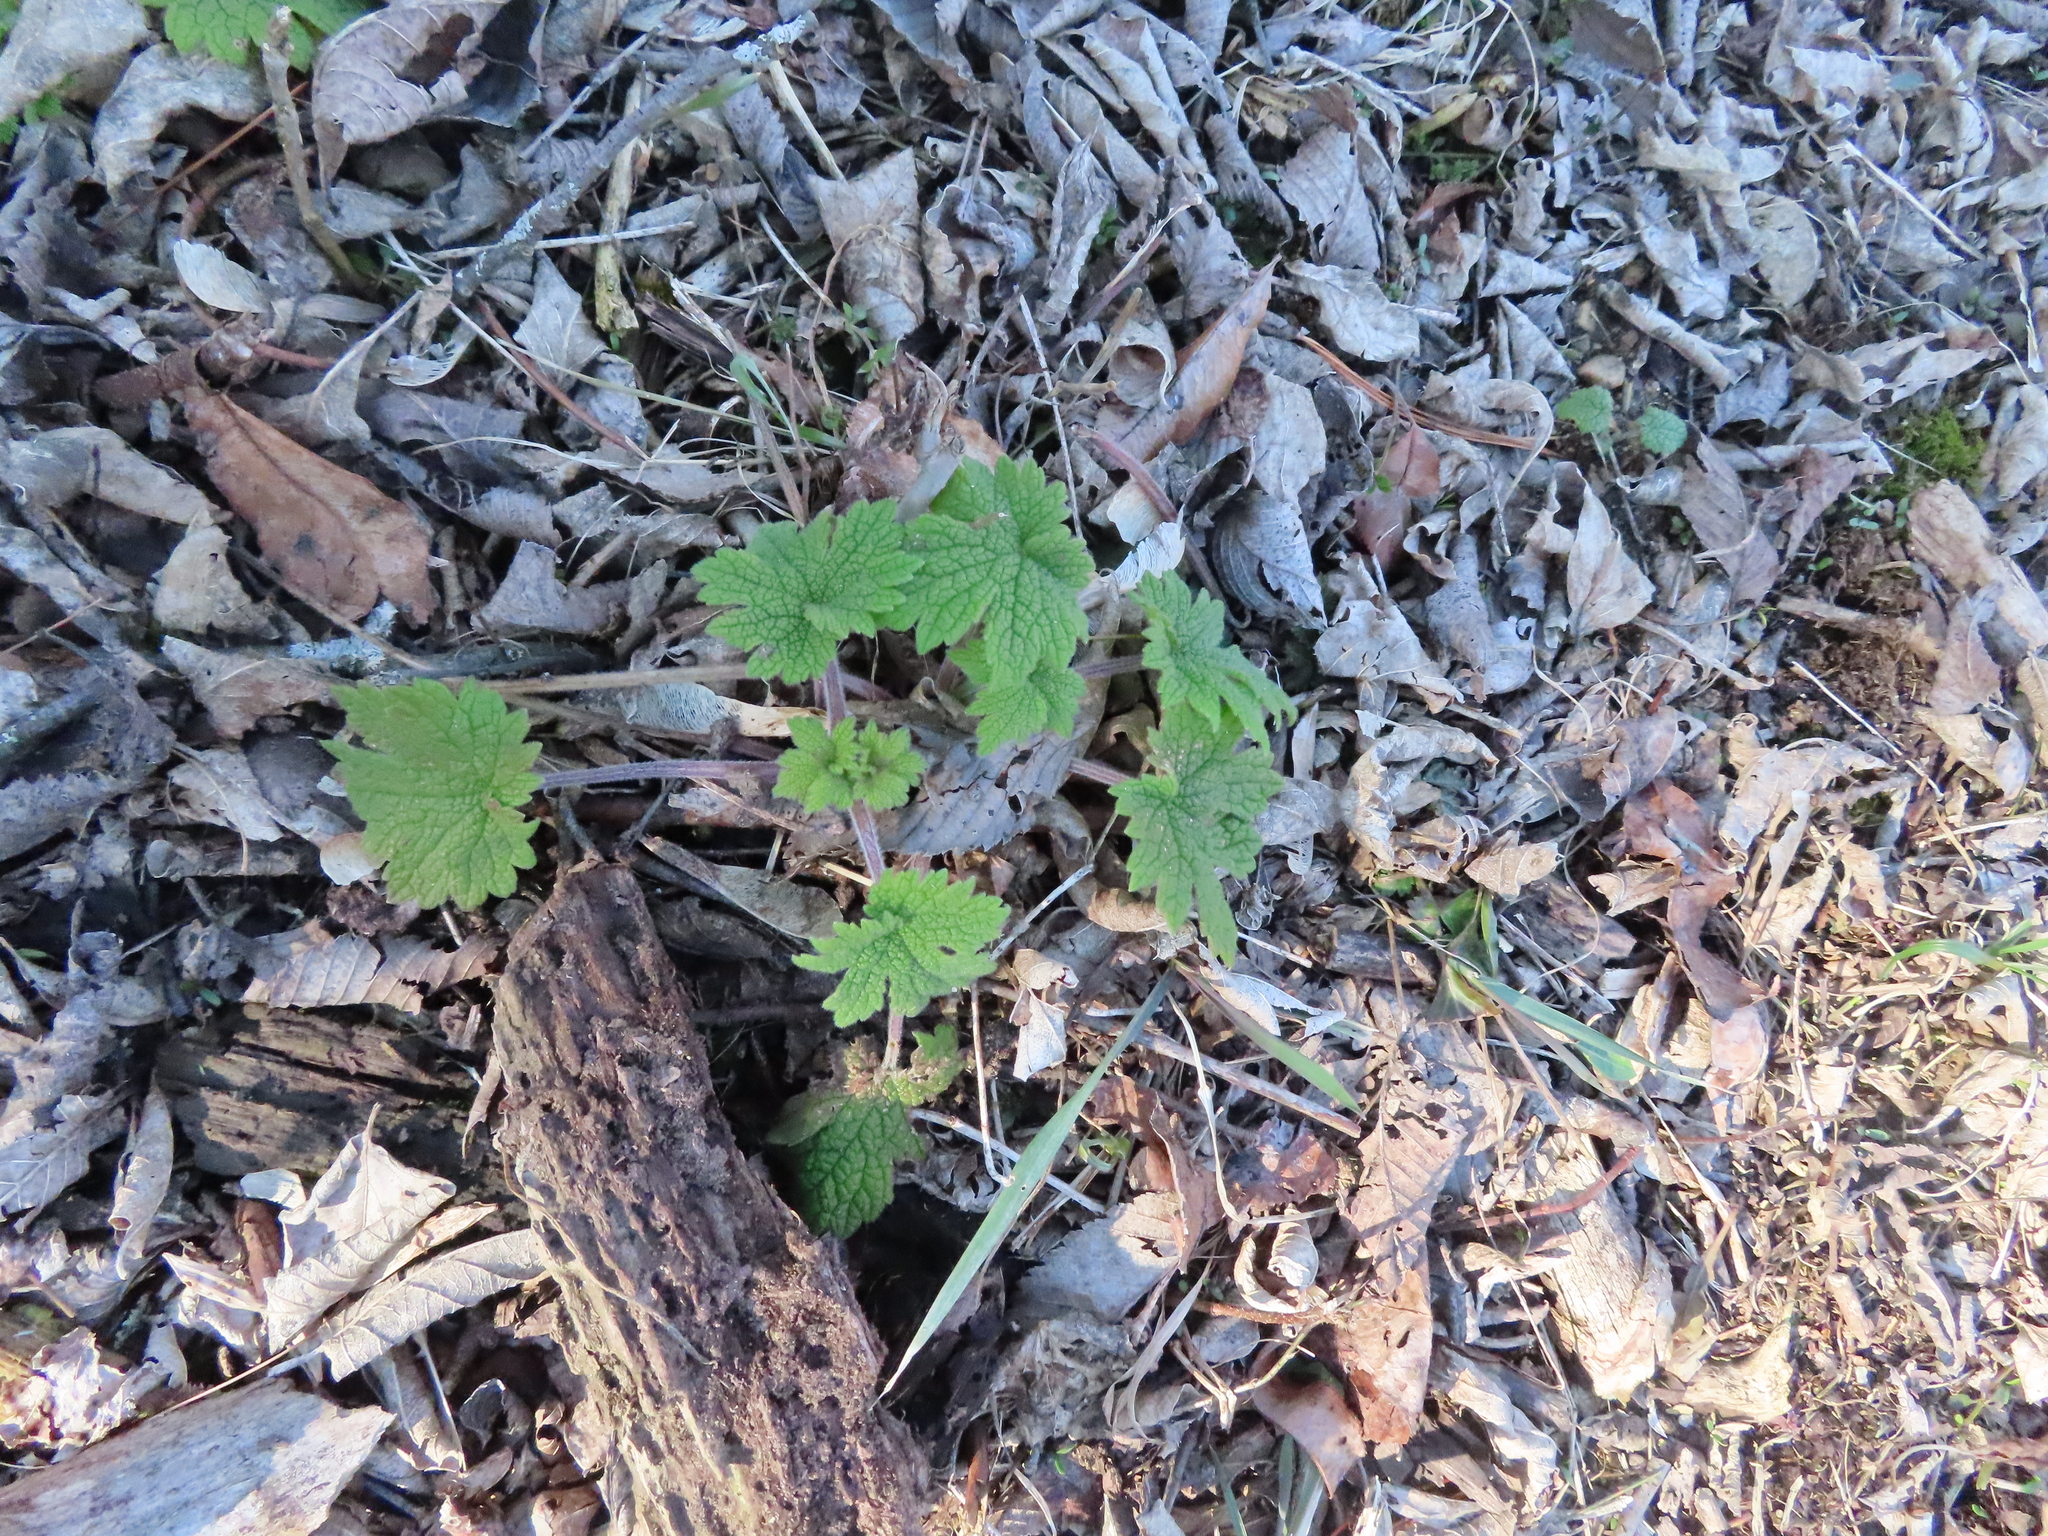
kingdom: Plantae
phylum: Tracheophyta
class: Magnoliopsida
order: Lamiales
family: Lamiaceae
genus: Leonurus
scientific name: Leonurus cardiaca
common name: Motherwort
